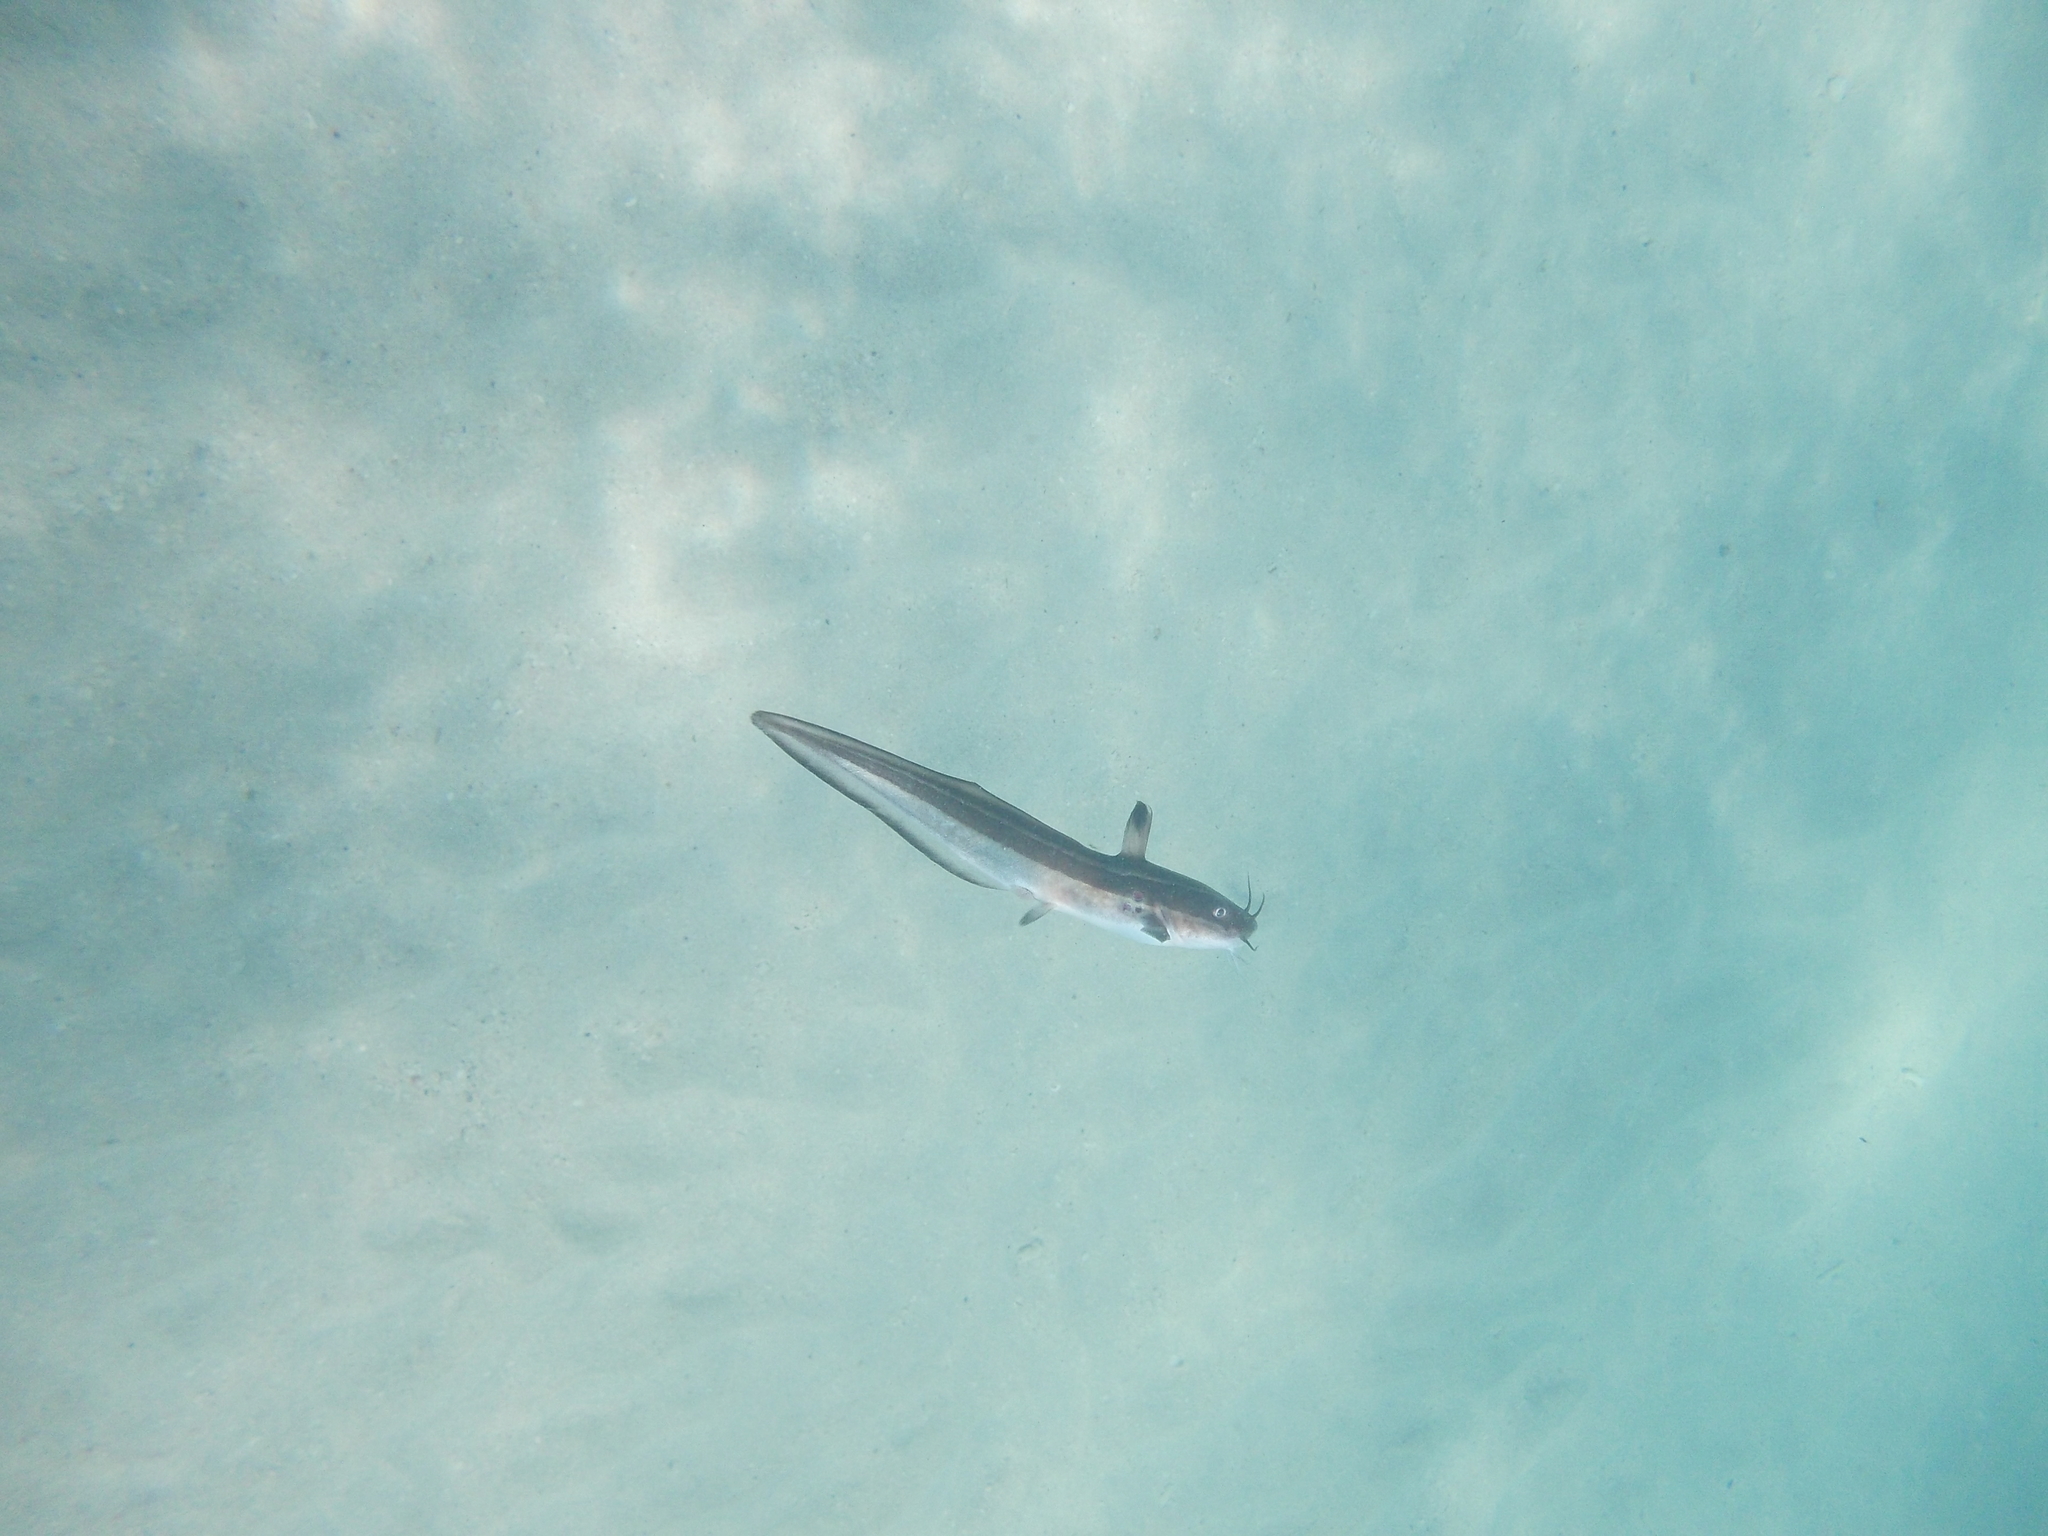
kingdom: Animalia
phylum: Chordata
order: Siluriformes
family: Plotosidae
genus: Plotosus
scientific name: Plotosus lineatus
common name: Striped eel catfish
